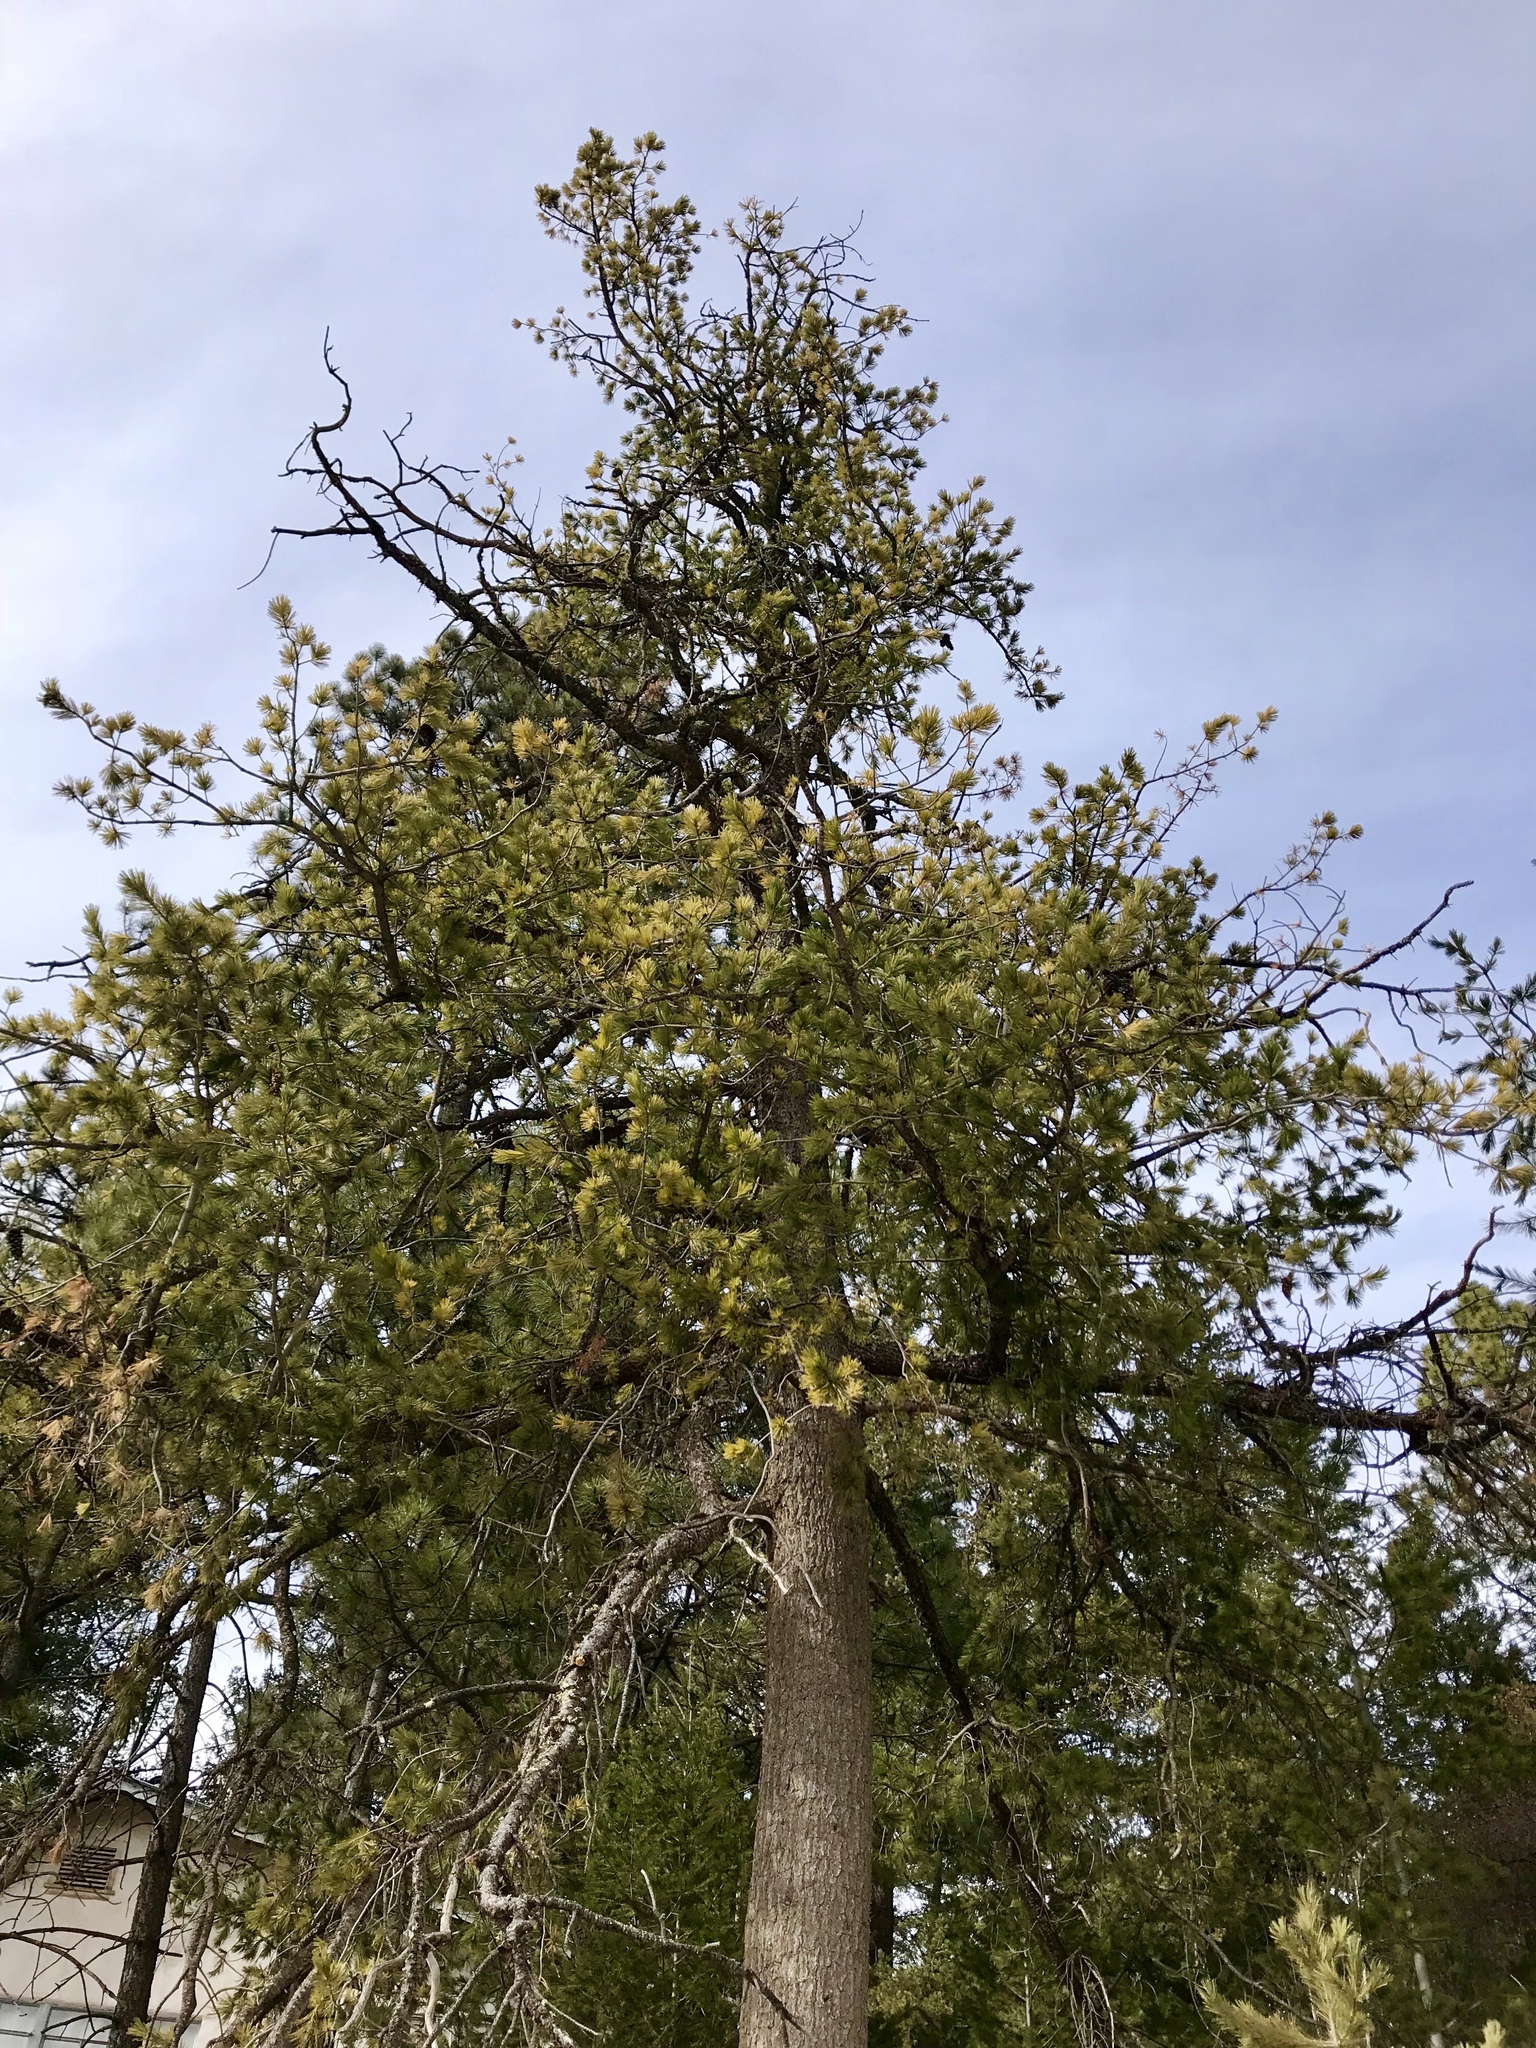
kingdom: Plantae
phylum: Tracheophyta
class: Pinopsida
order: Pinales
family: Pinaceae
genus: Pinus
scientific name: Pinus strobiformis
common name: Southwestern white pine
